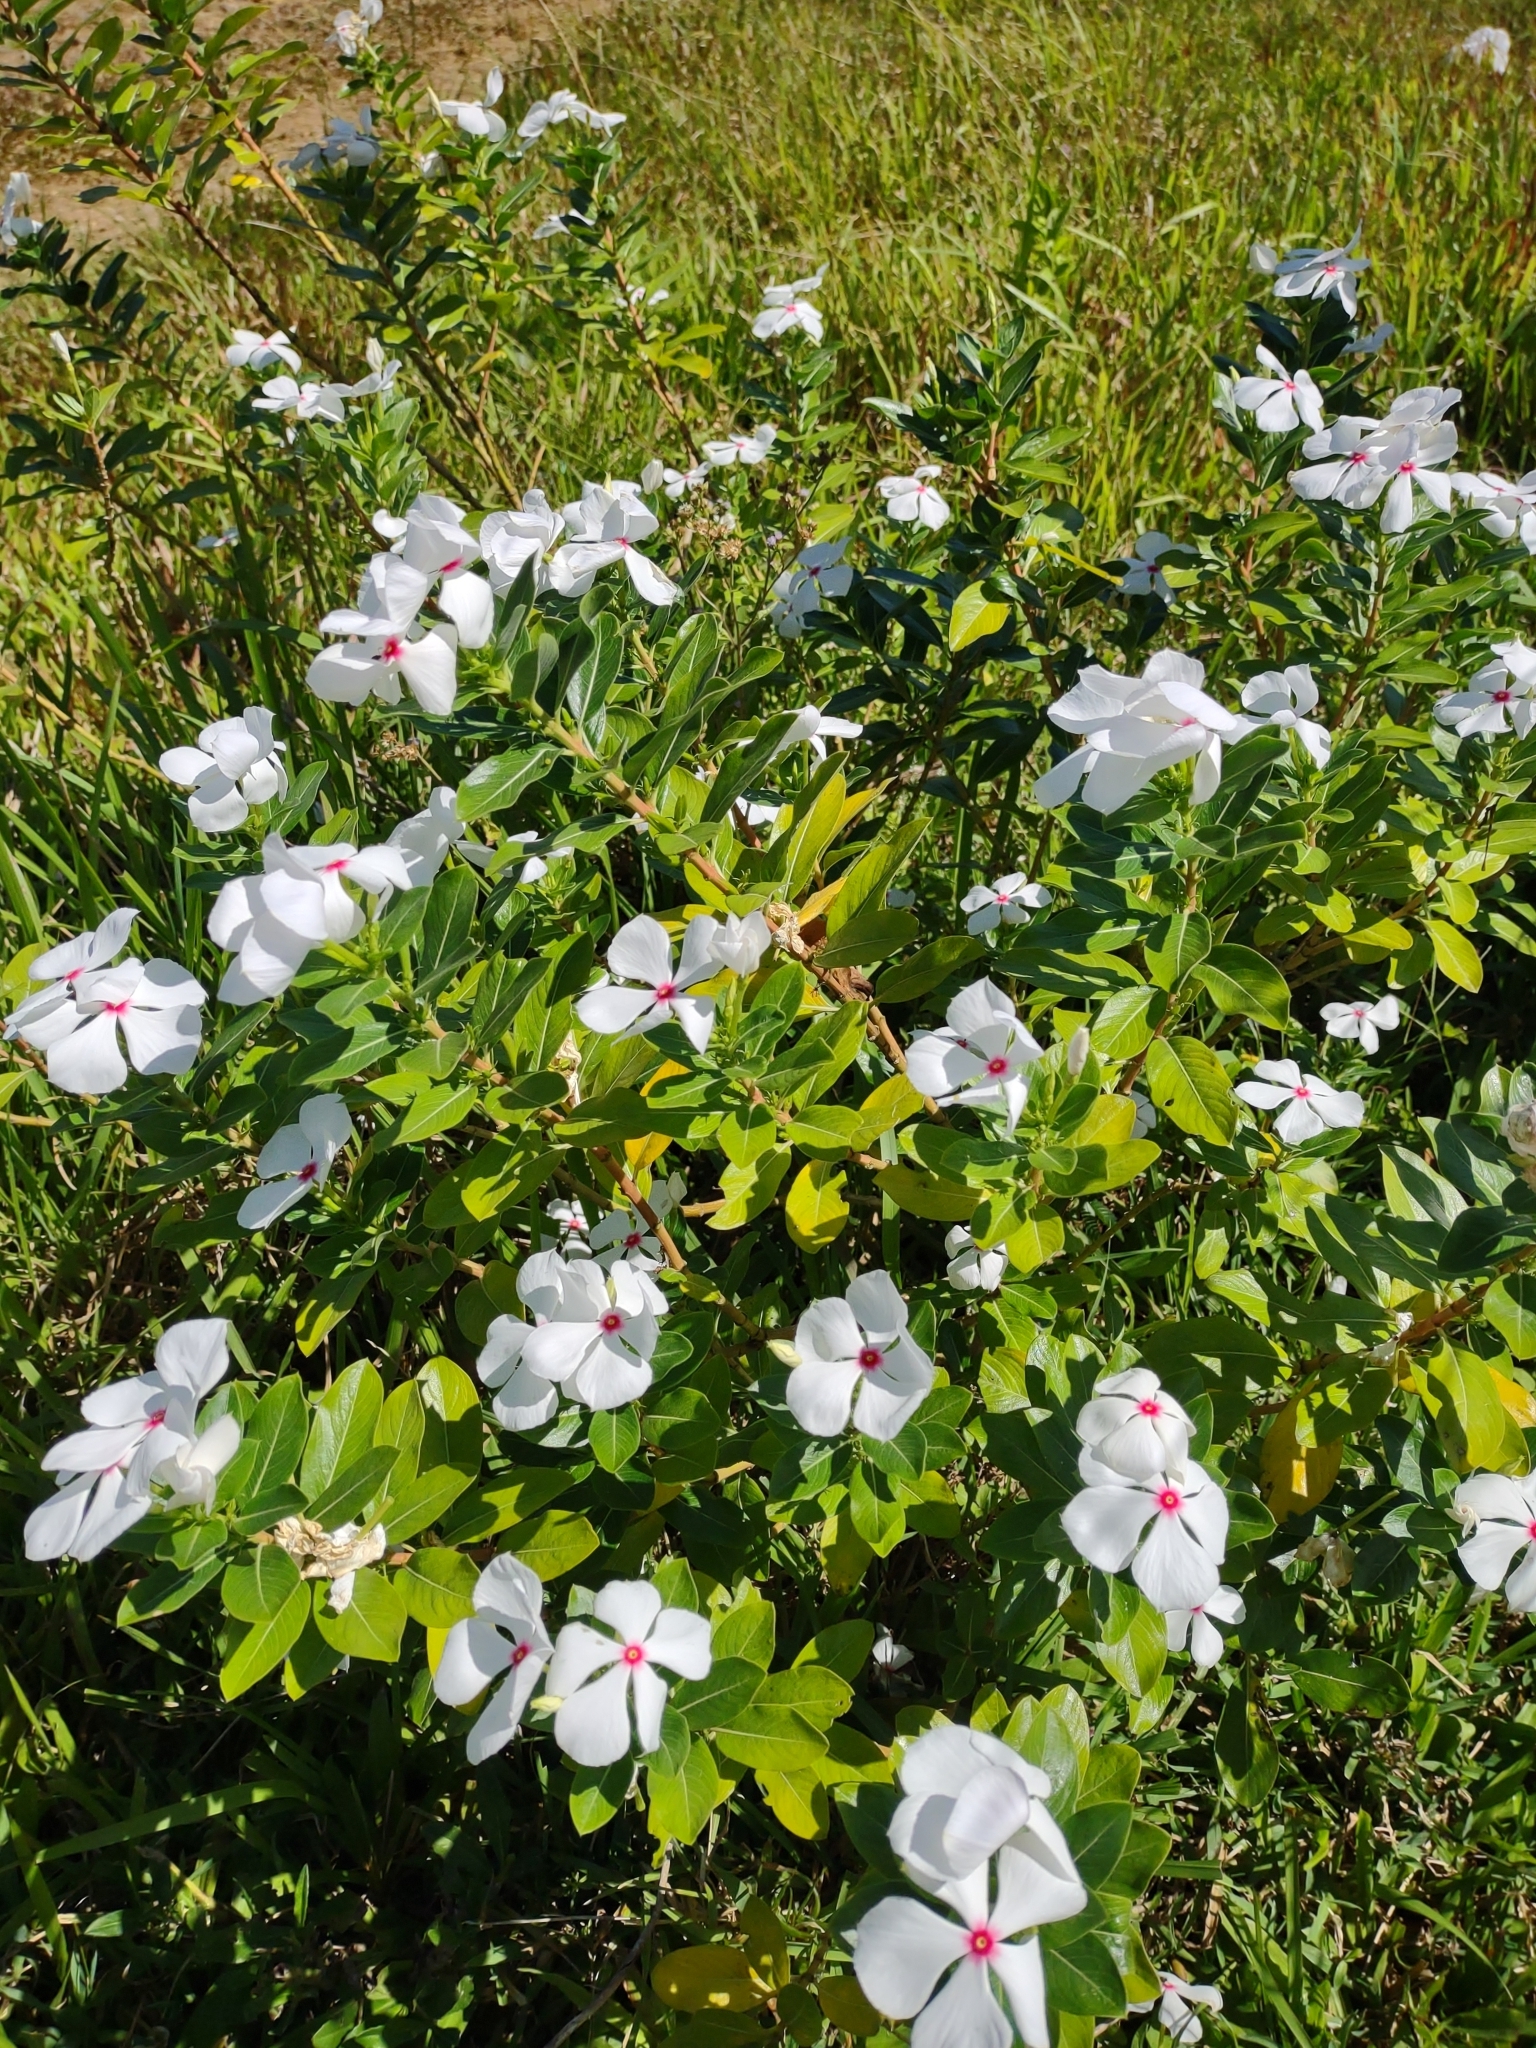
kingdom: Plantae
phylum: Tracheophyta
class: Magnoliopsida
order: Gentianales
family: Apocynaceae
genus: Catharanthus
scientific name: Catharanthus roseus
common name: Madagascar periwinkle
